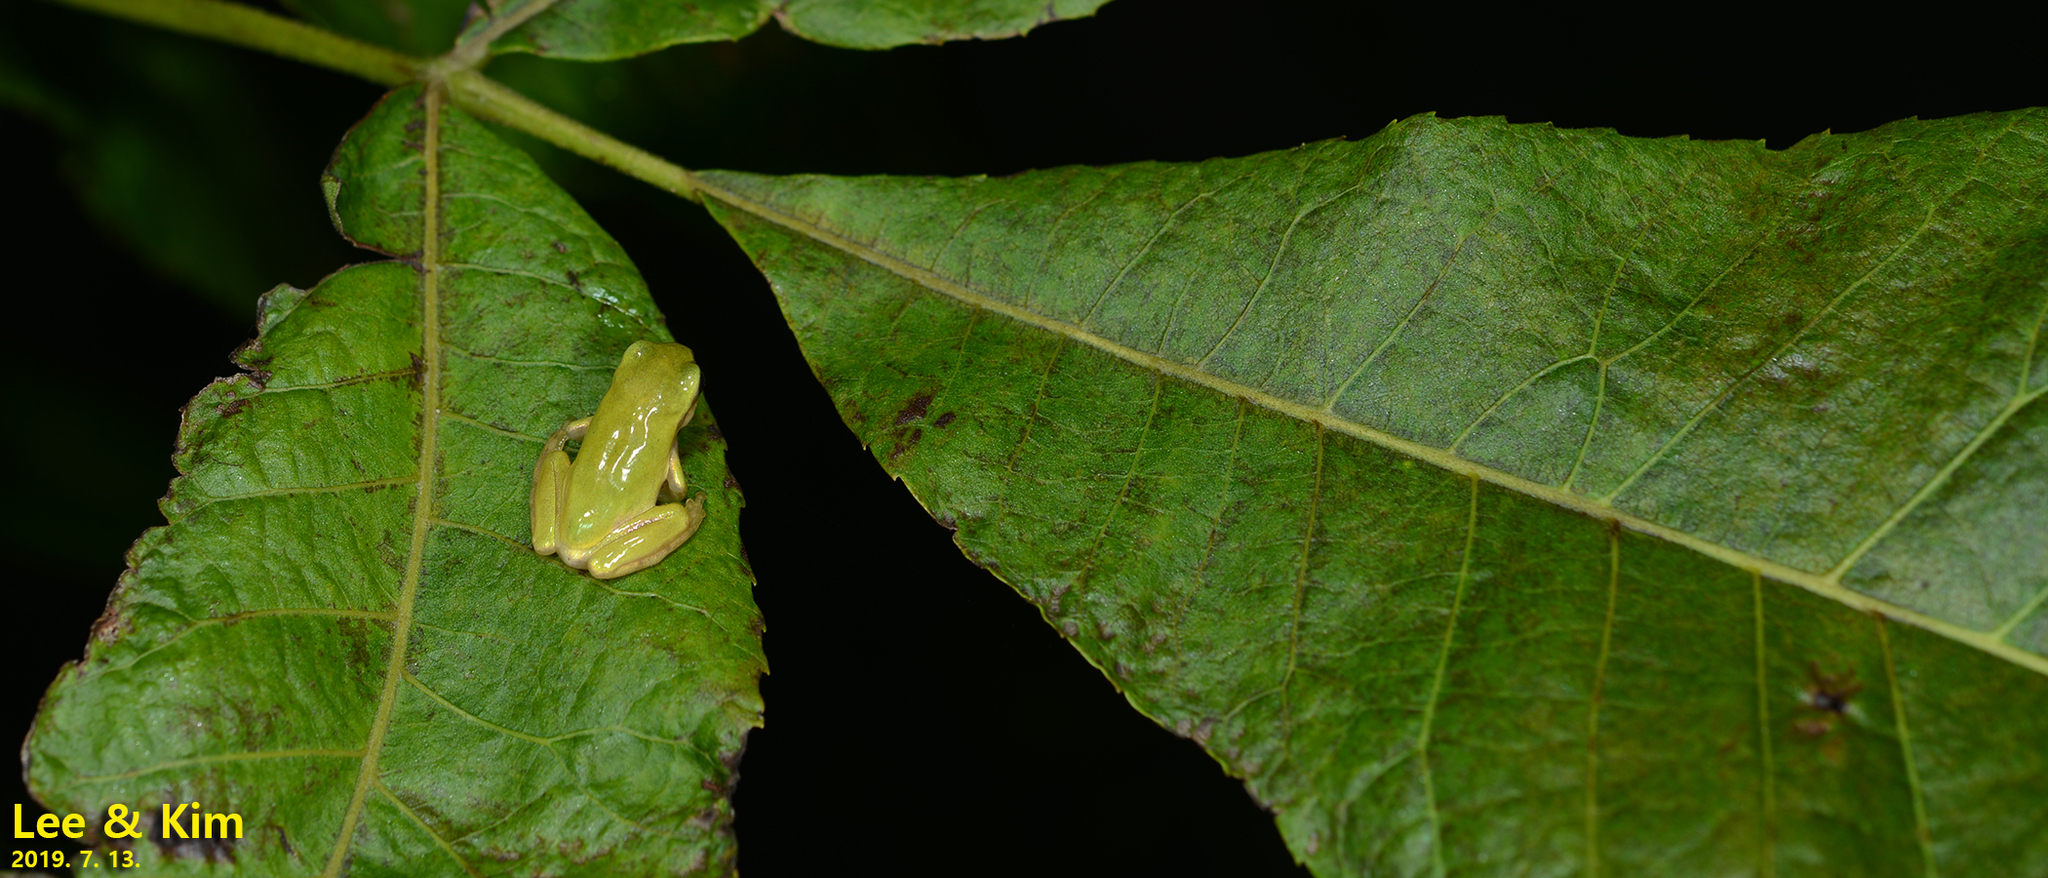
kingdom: Animalia
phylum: Chordata
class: Amphibia
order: Anura
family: Hylidae
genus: Dryophytes
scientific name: Dryophytes japonicus
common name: Japanese treefrog
